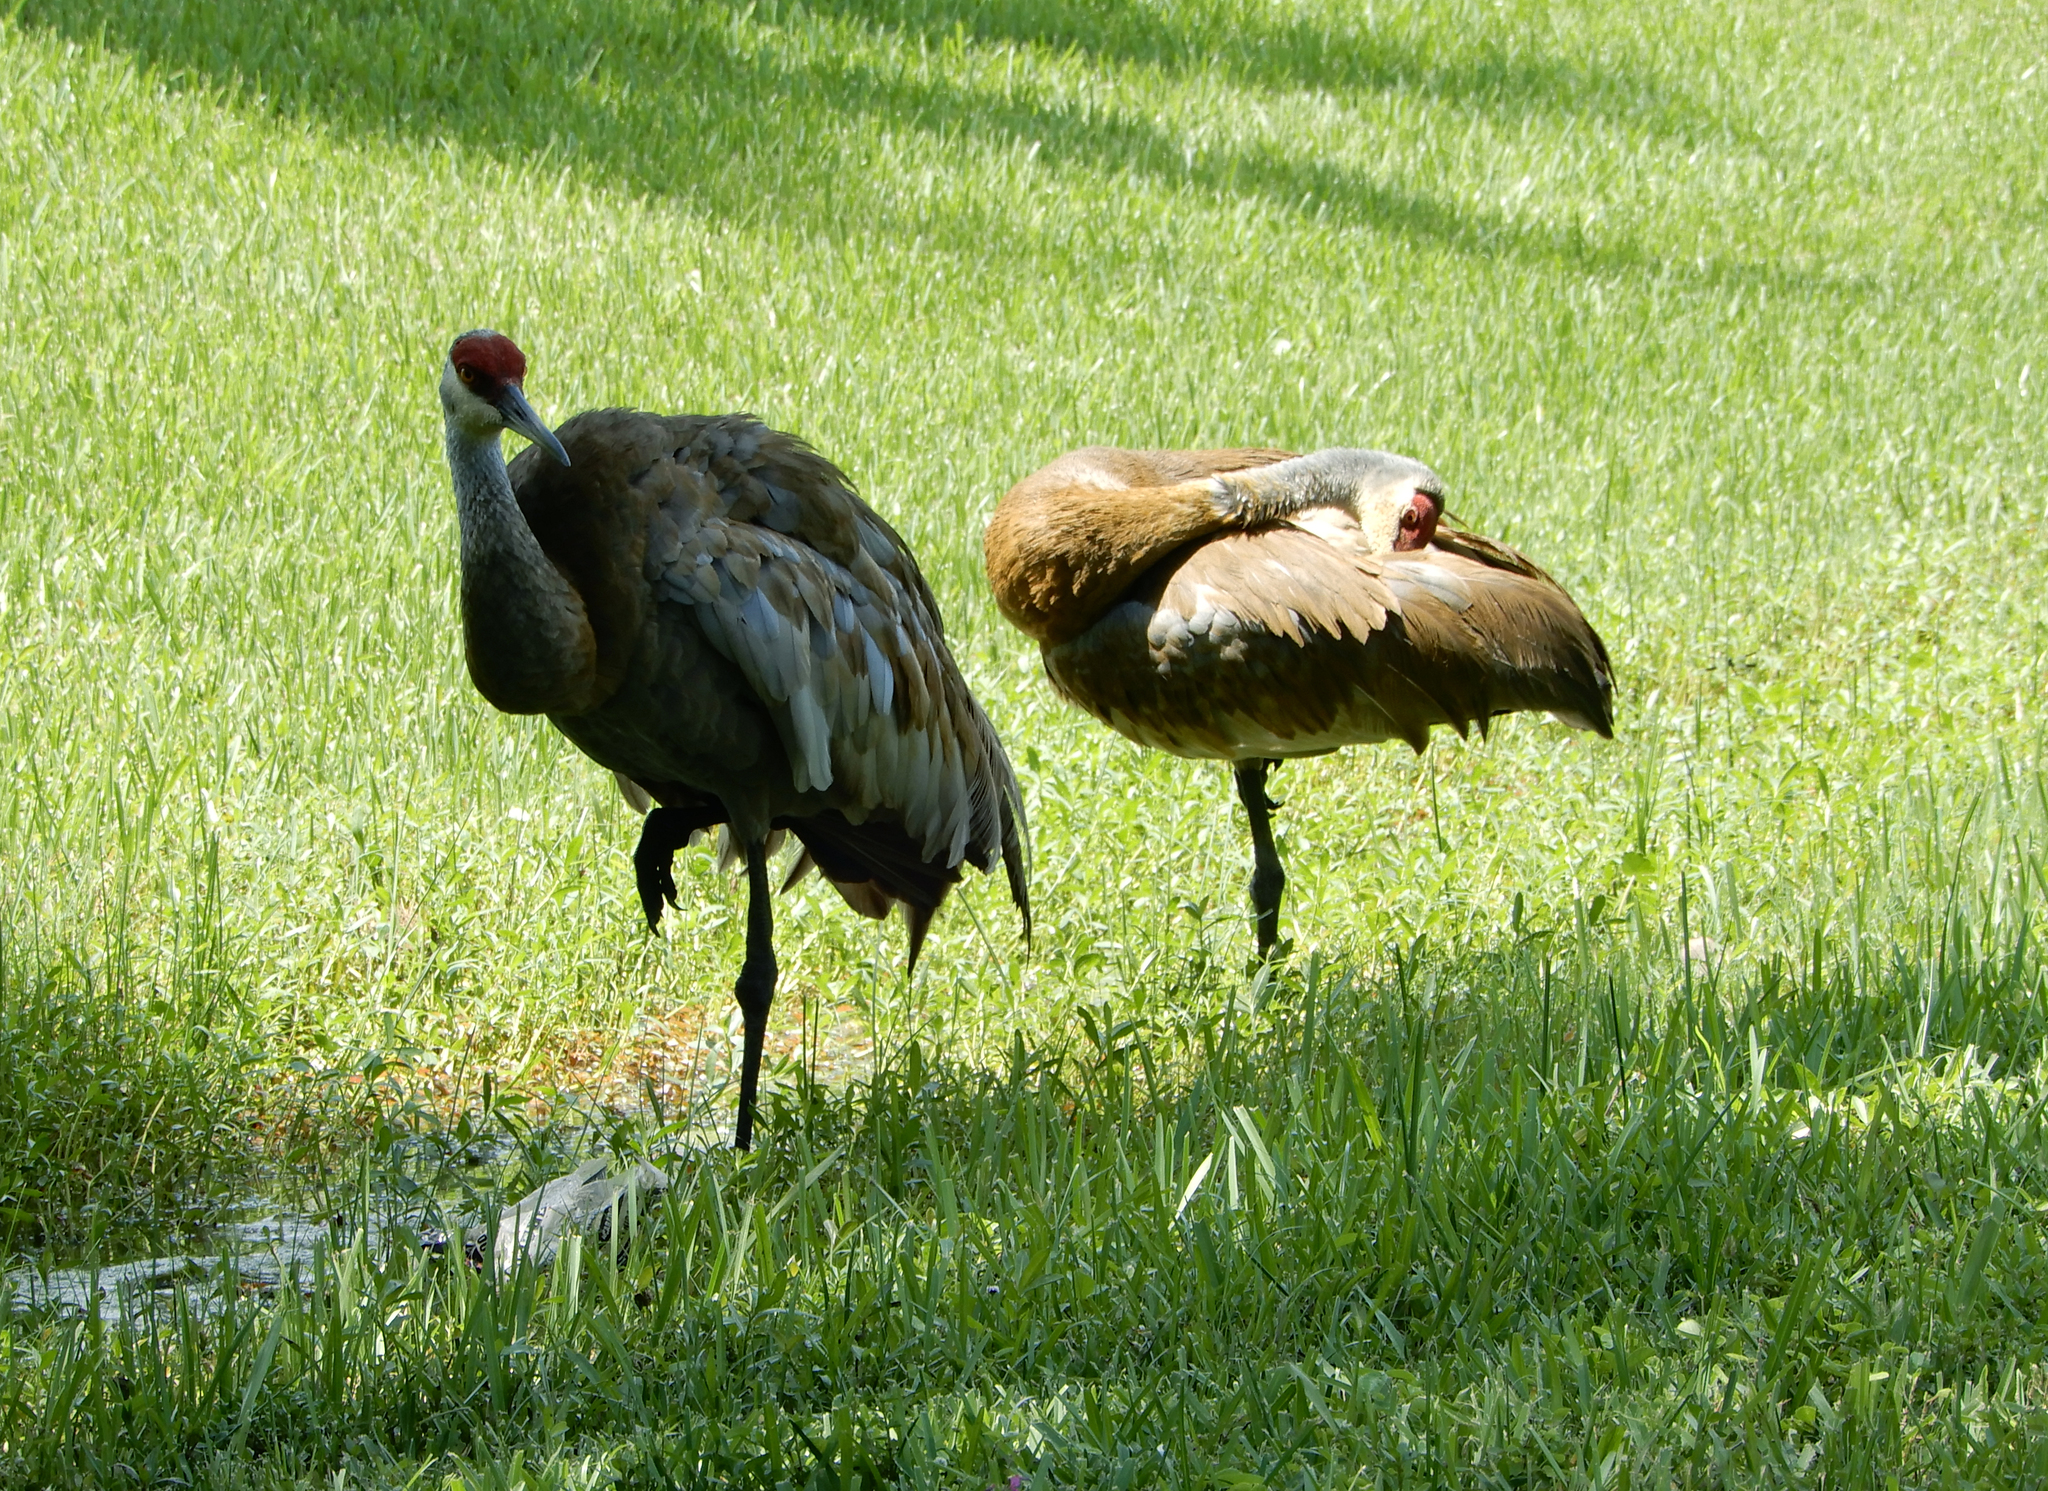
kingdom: Animalia
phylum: Chordata
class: Aves
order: Gruiformes
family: Gruidae
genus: Grus
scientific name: Grus canadensis
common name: Sandhill crane
